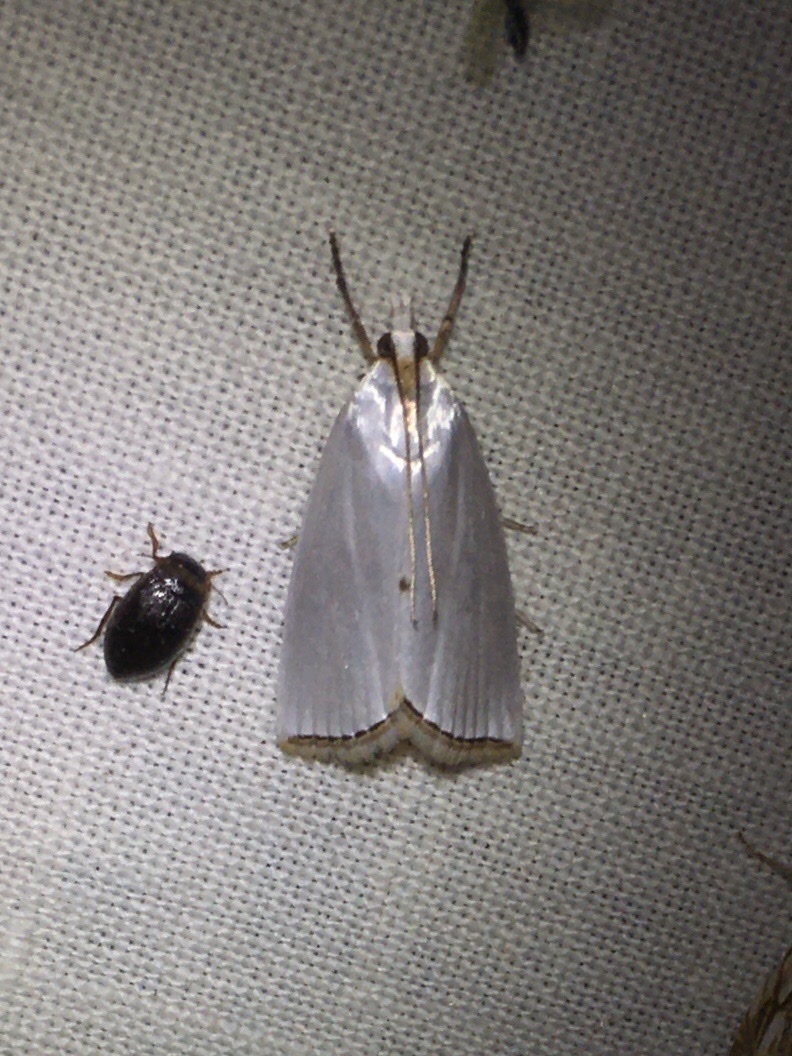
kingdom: Animalia
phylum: Arthropoda
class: Insecta
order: Lepidoptera
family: Crambidae
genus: Argyria
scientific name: Argyria nivalis
